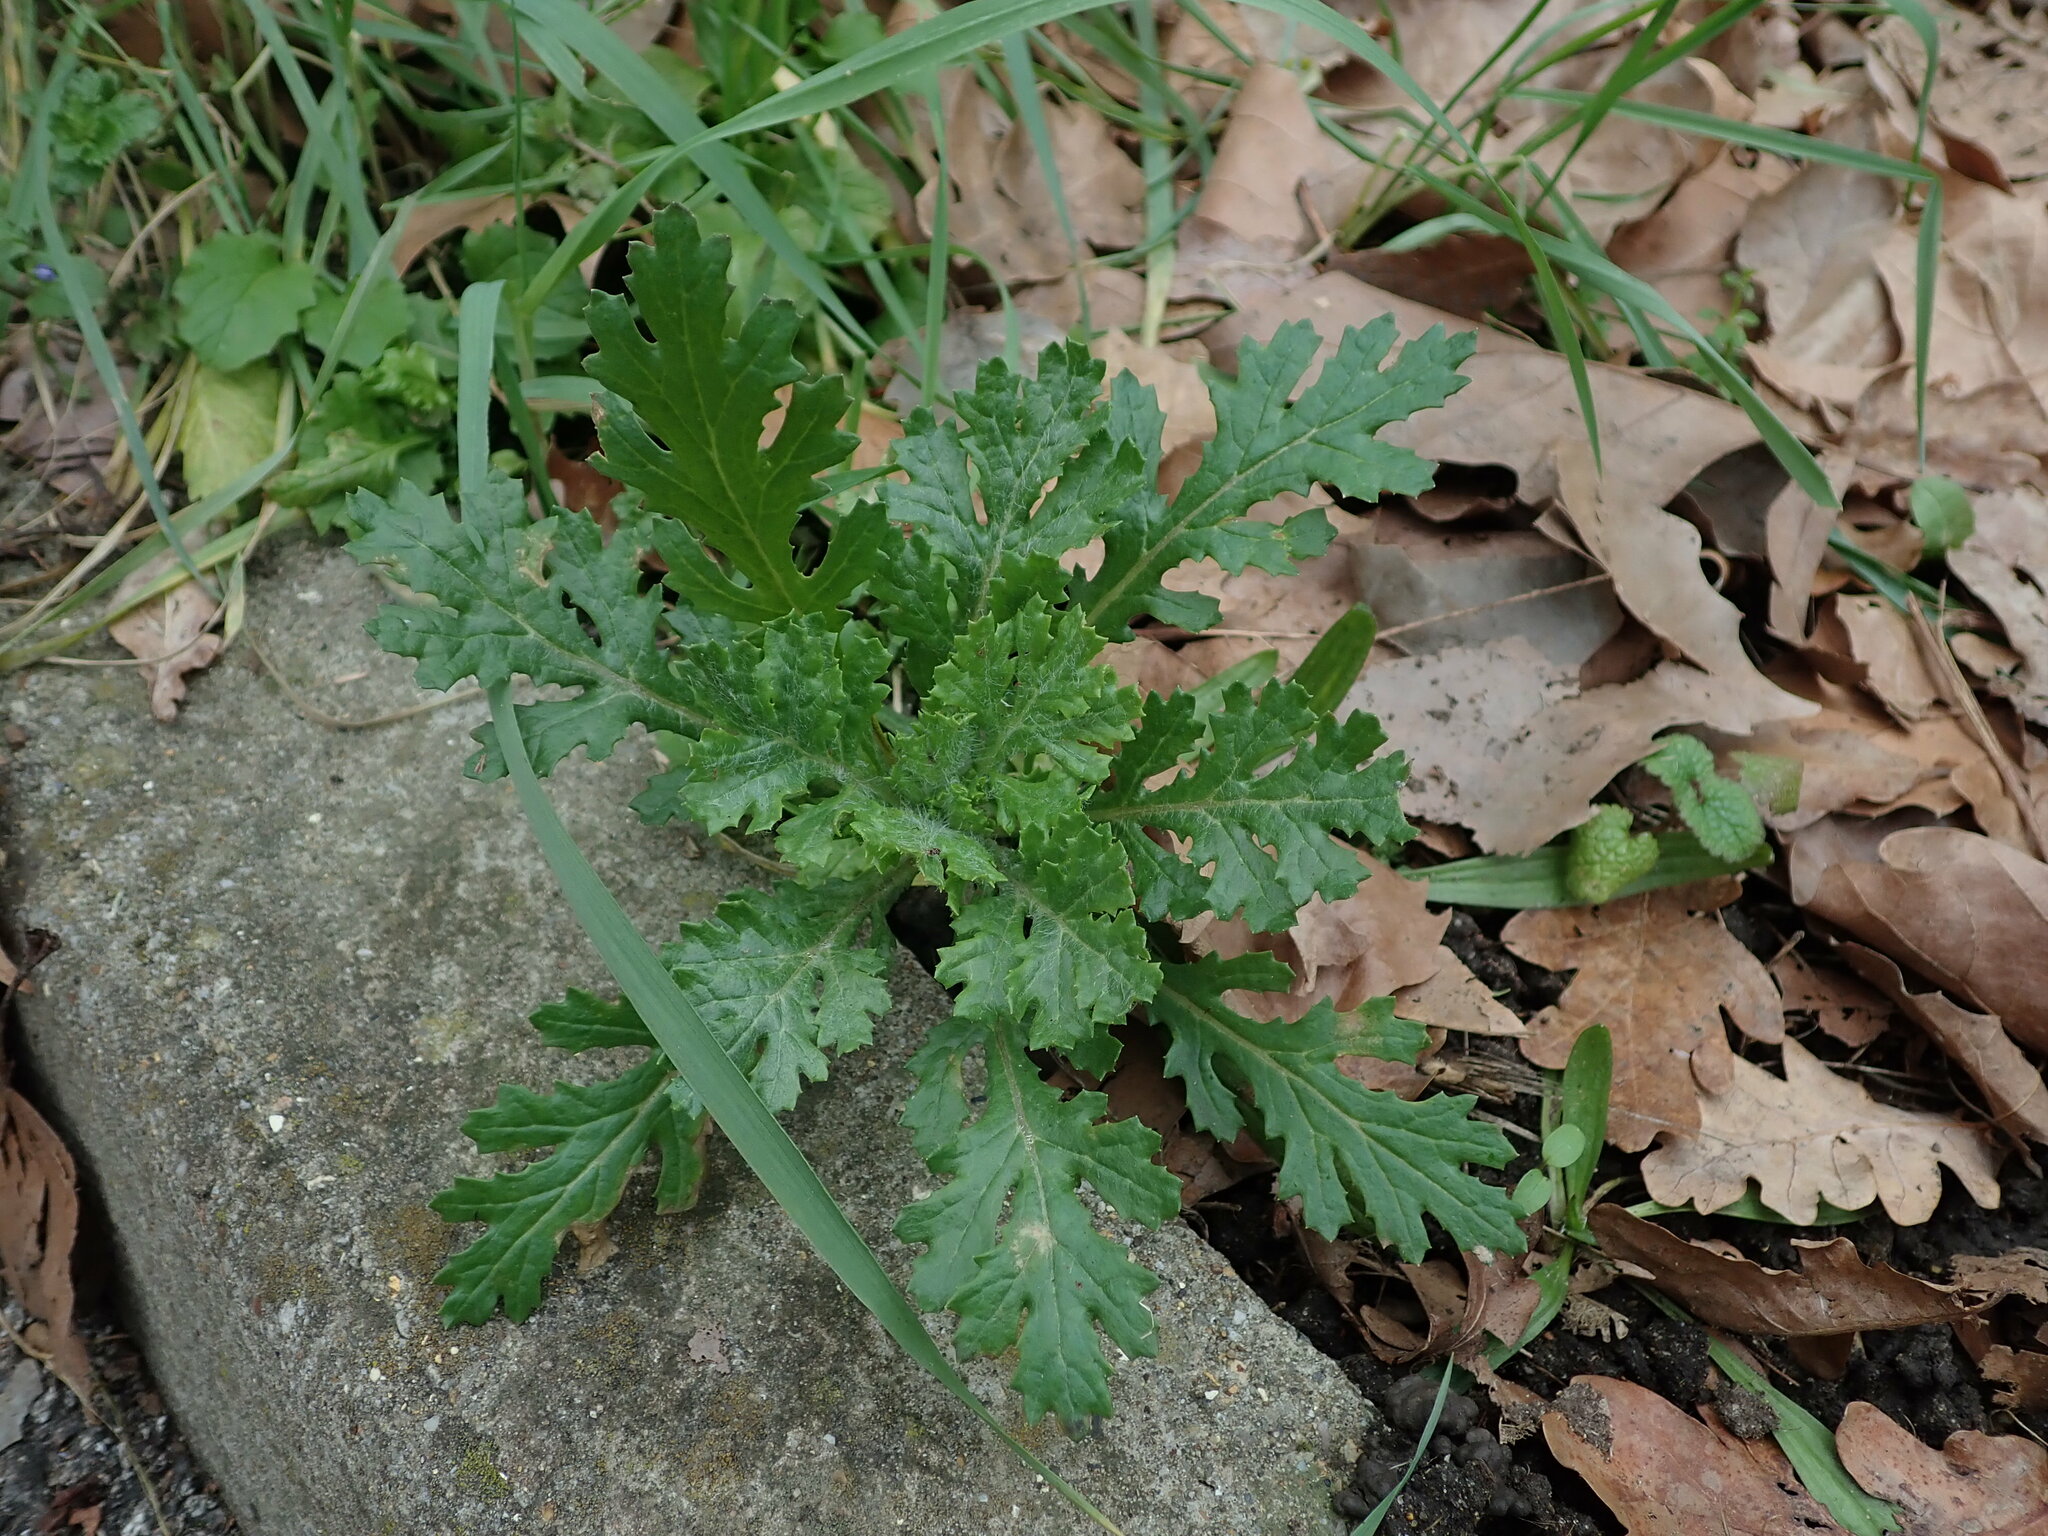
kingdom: Plantae
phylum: Tracheophyta
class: Magnoliopsida
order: Asterales
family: Asteraceae
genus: Senecio
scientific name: Senecio squalidus
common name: Oxford ragwort
